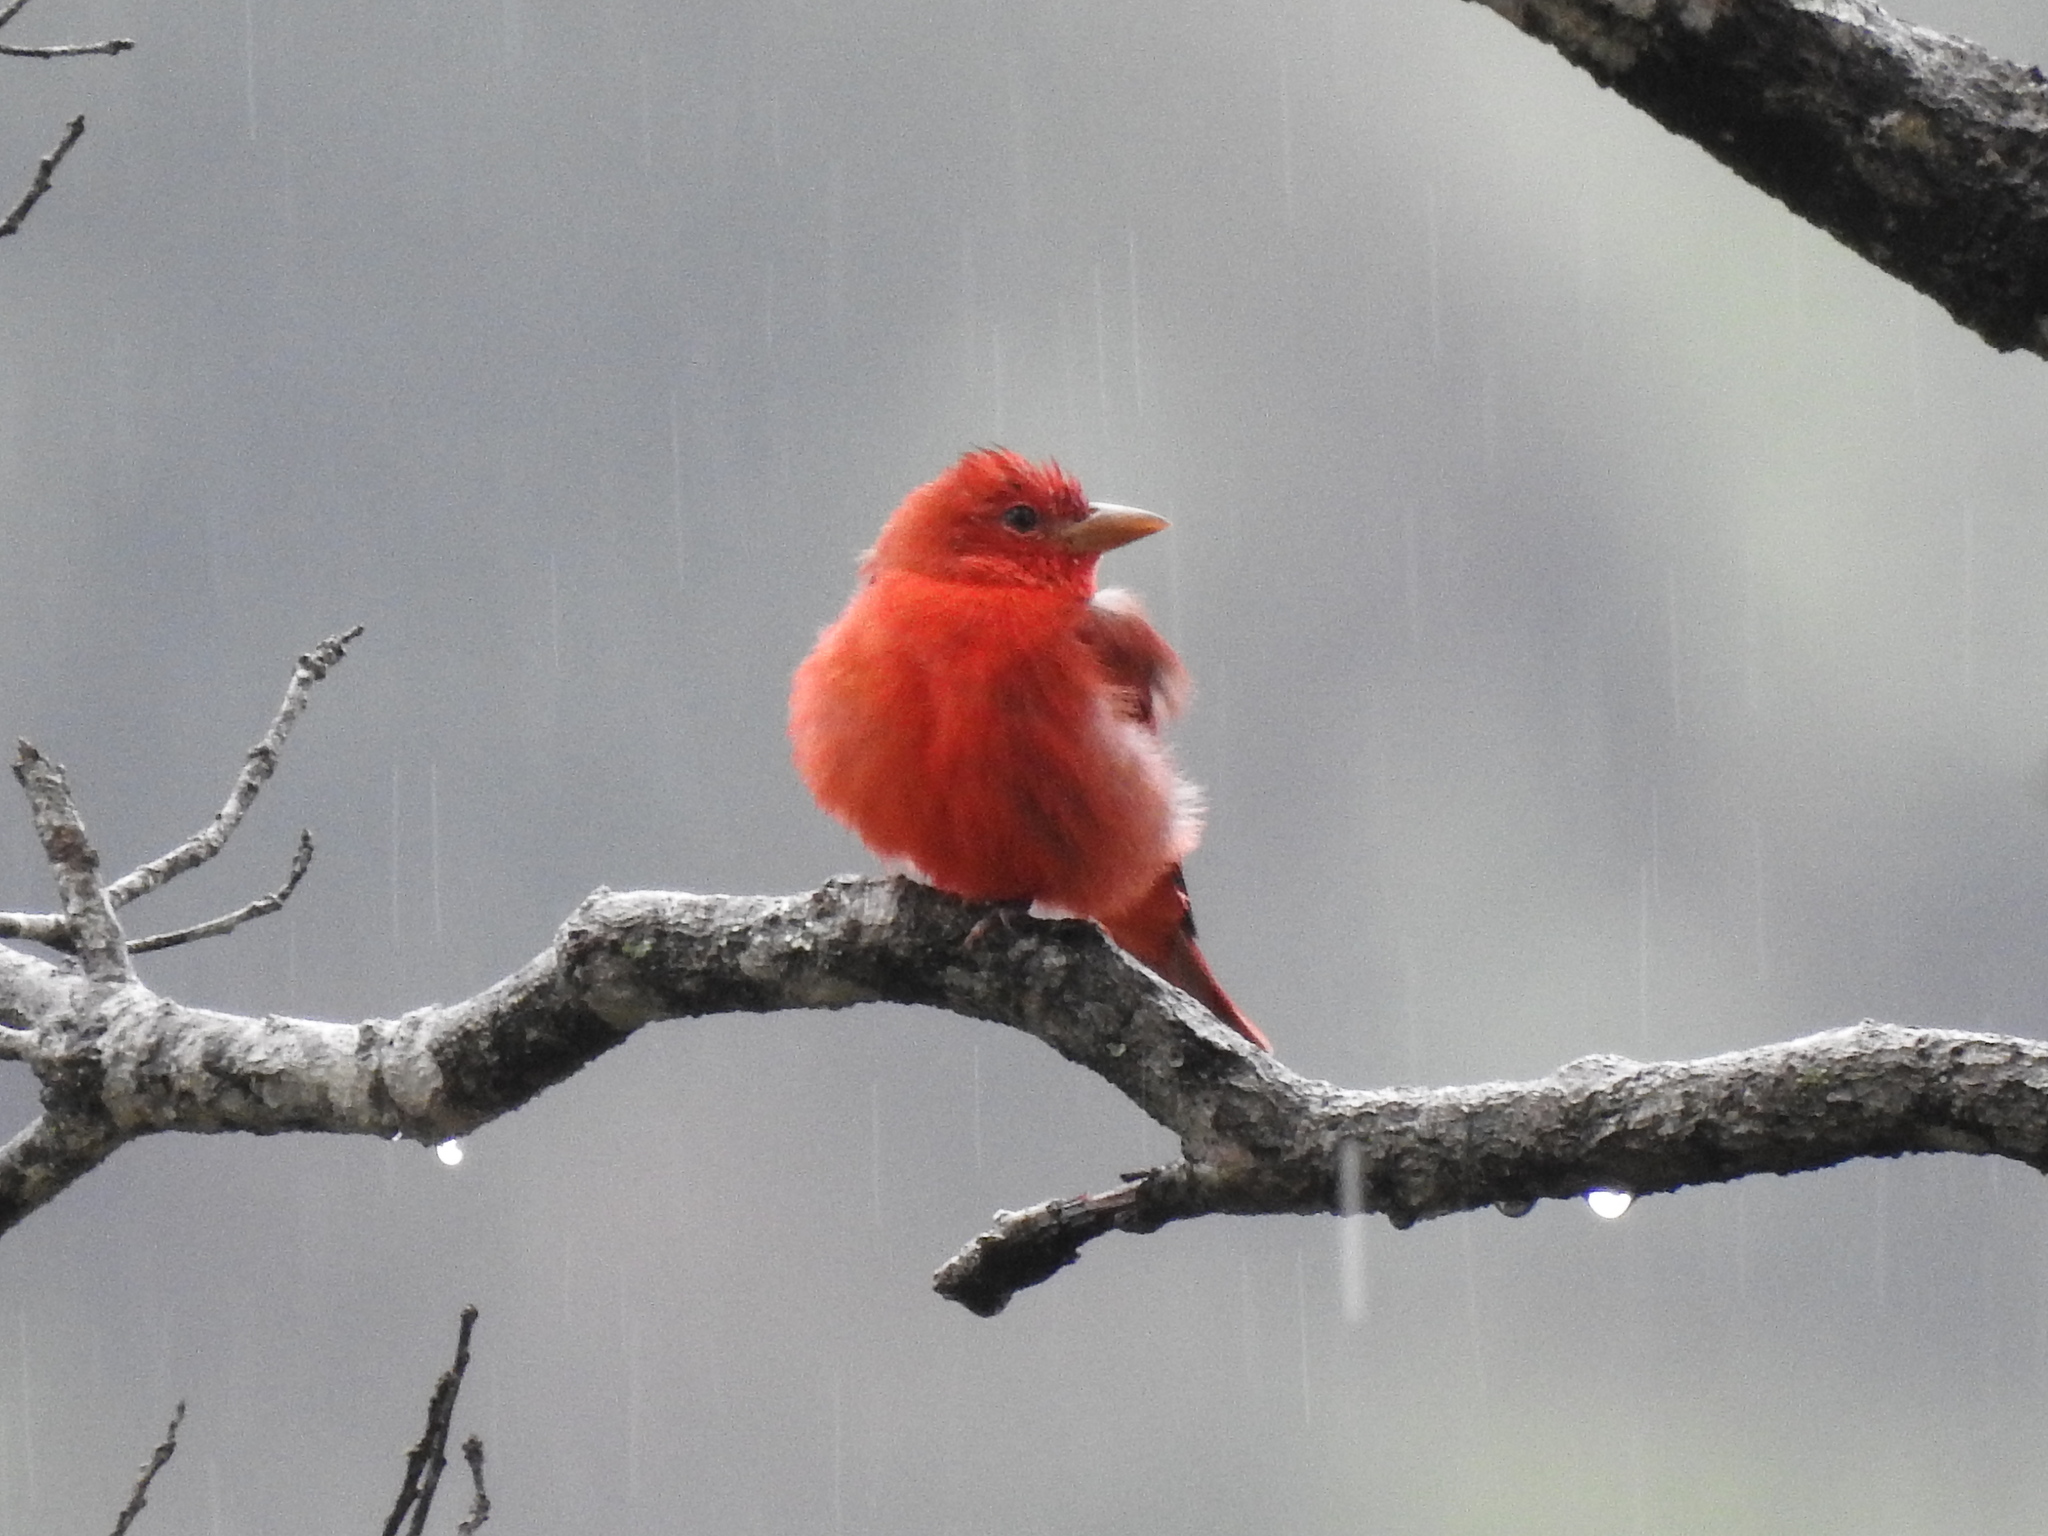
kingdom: Animalia
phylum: Chordata
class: Aves
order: Passeriformes
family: Cardinalidae
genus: Piranga
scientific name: Piranga rubra
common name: Summer tanager
